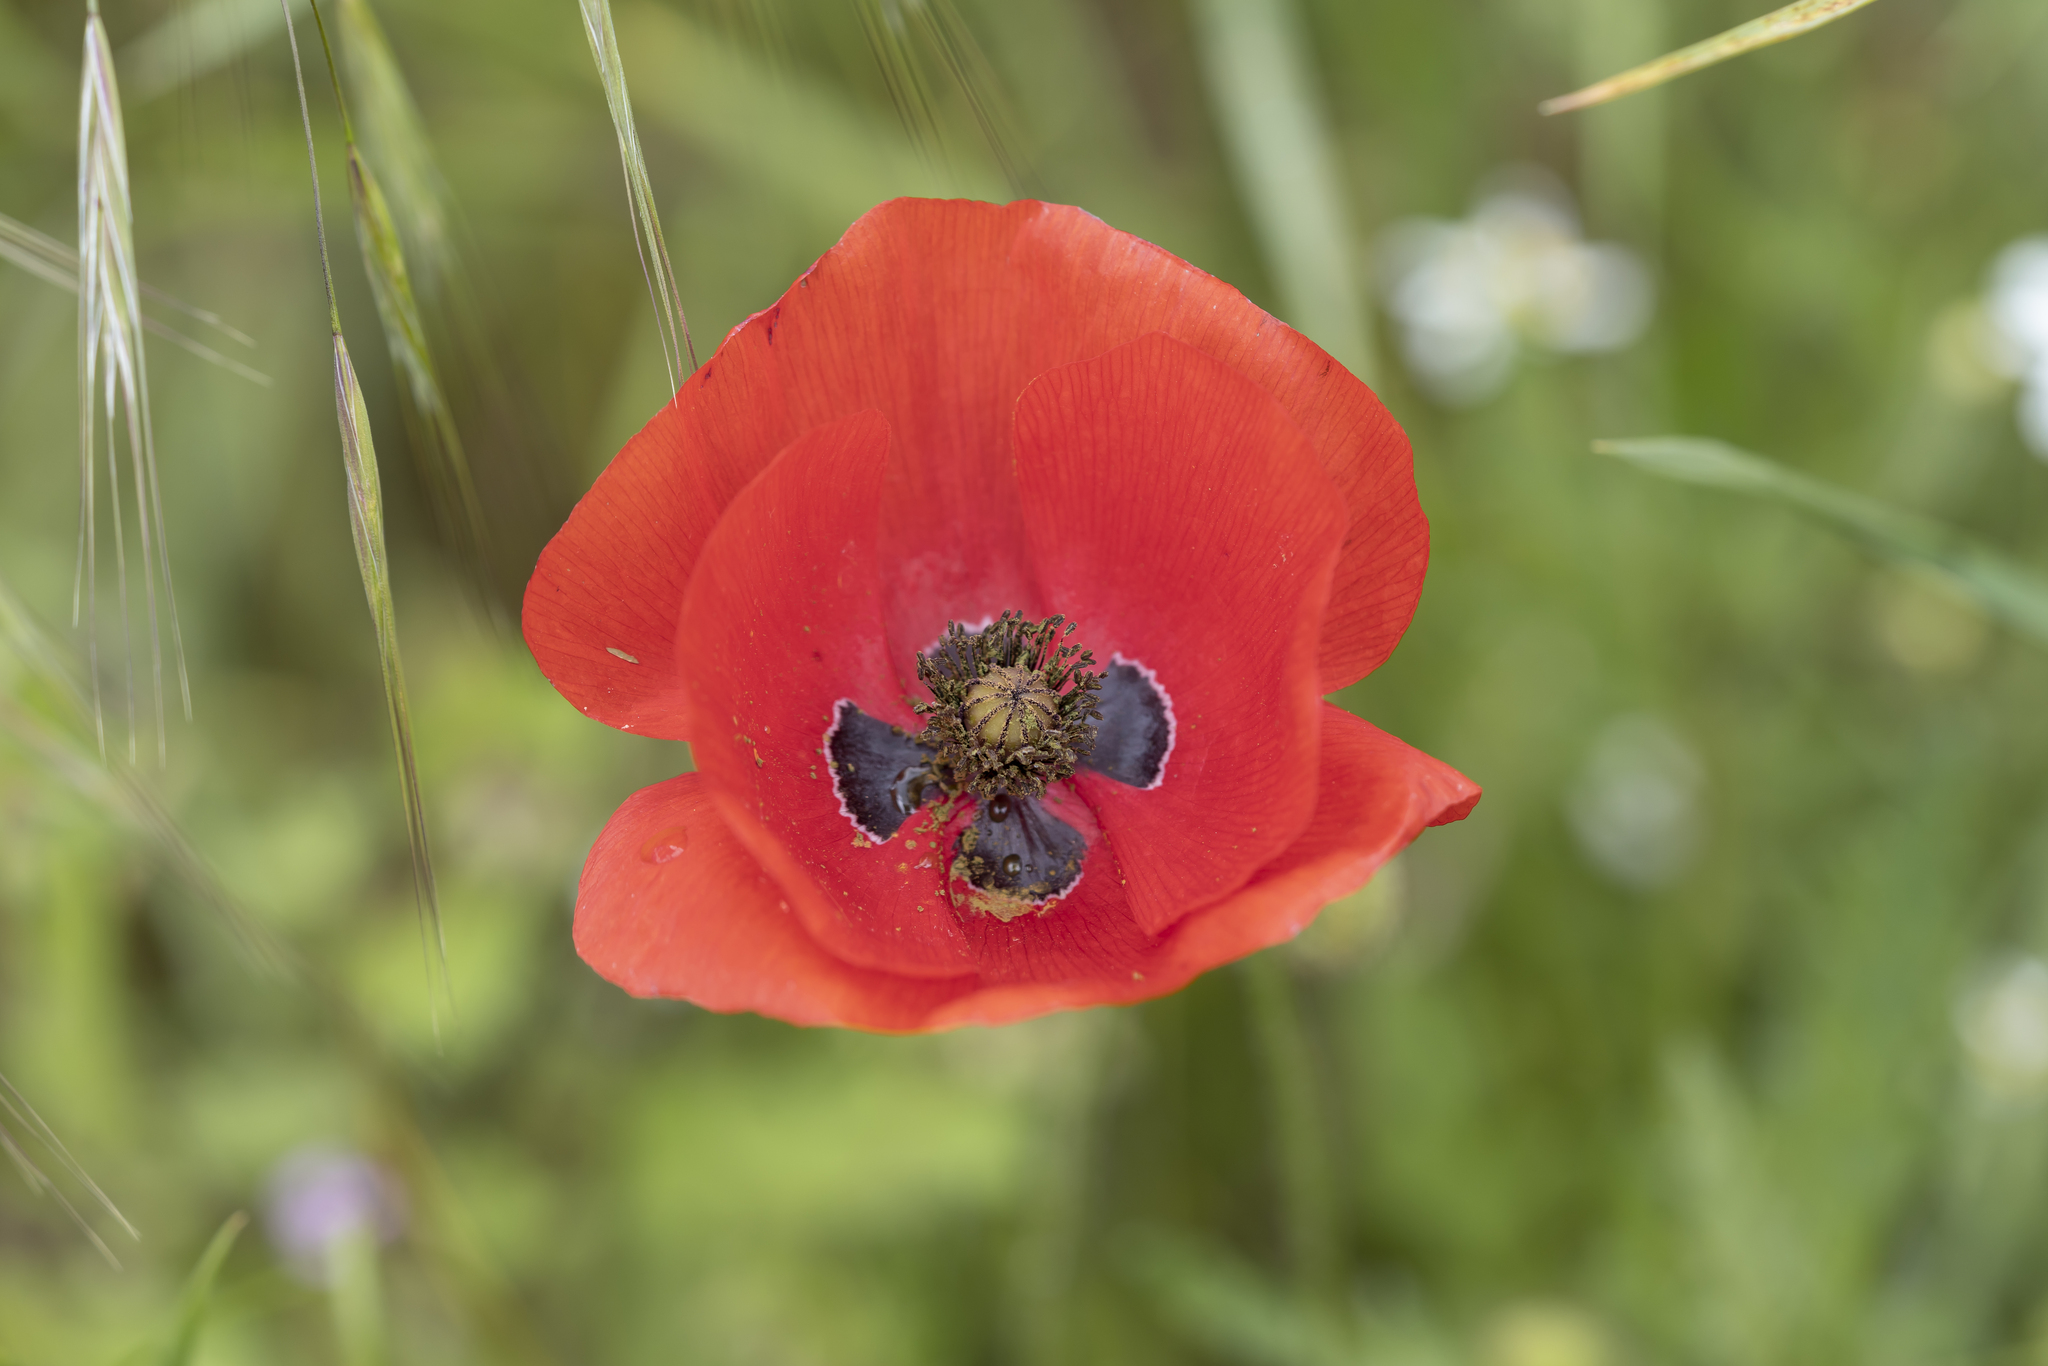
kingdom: Plantae
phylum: Tracheophyta
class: Magnoliopsida
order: Ranunculales
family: Papaveraceae
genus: Papaver
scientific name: Papaver rhoeas
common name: Corn poppy
